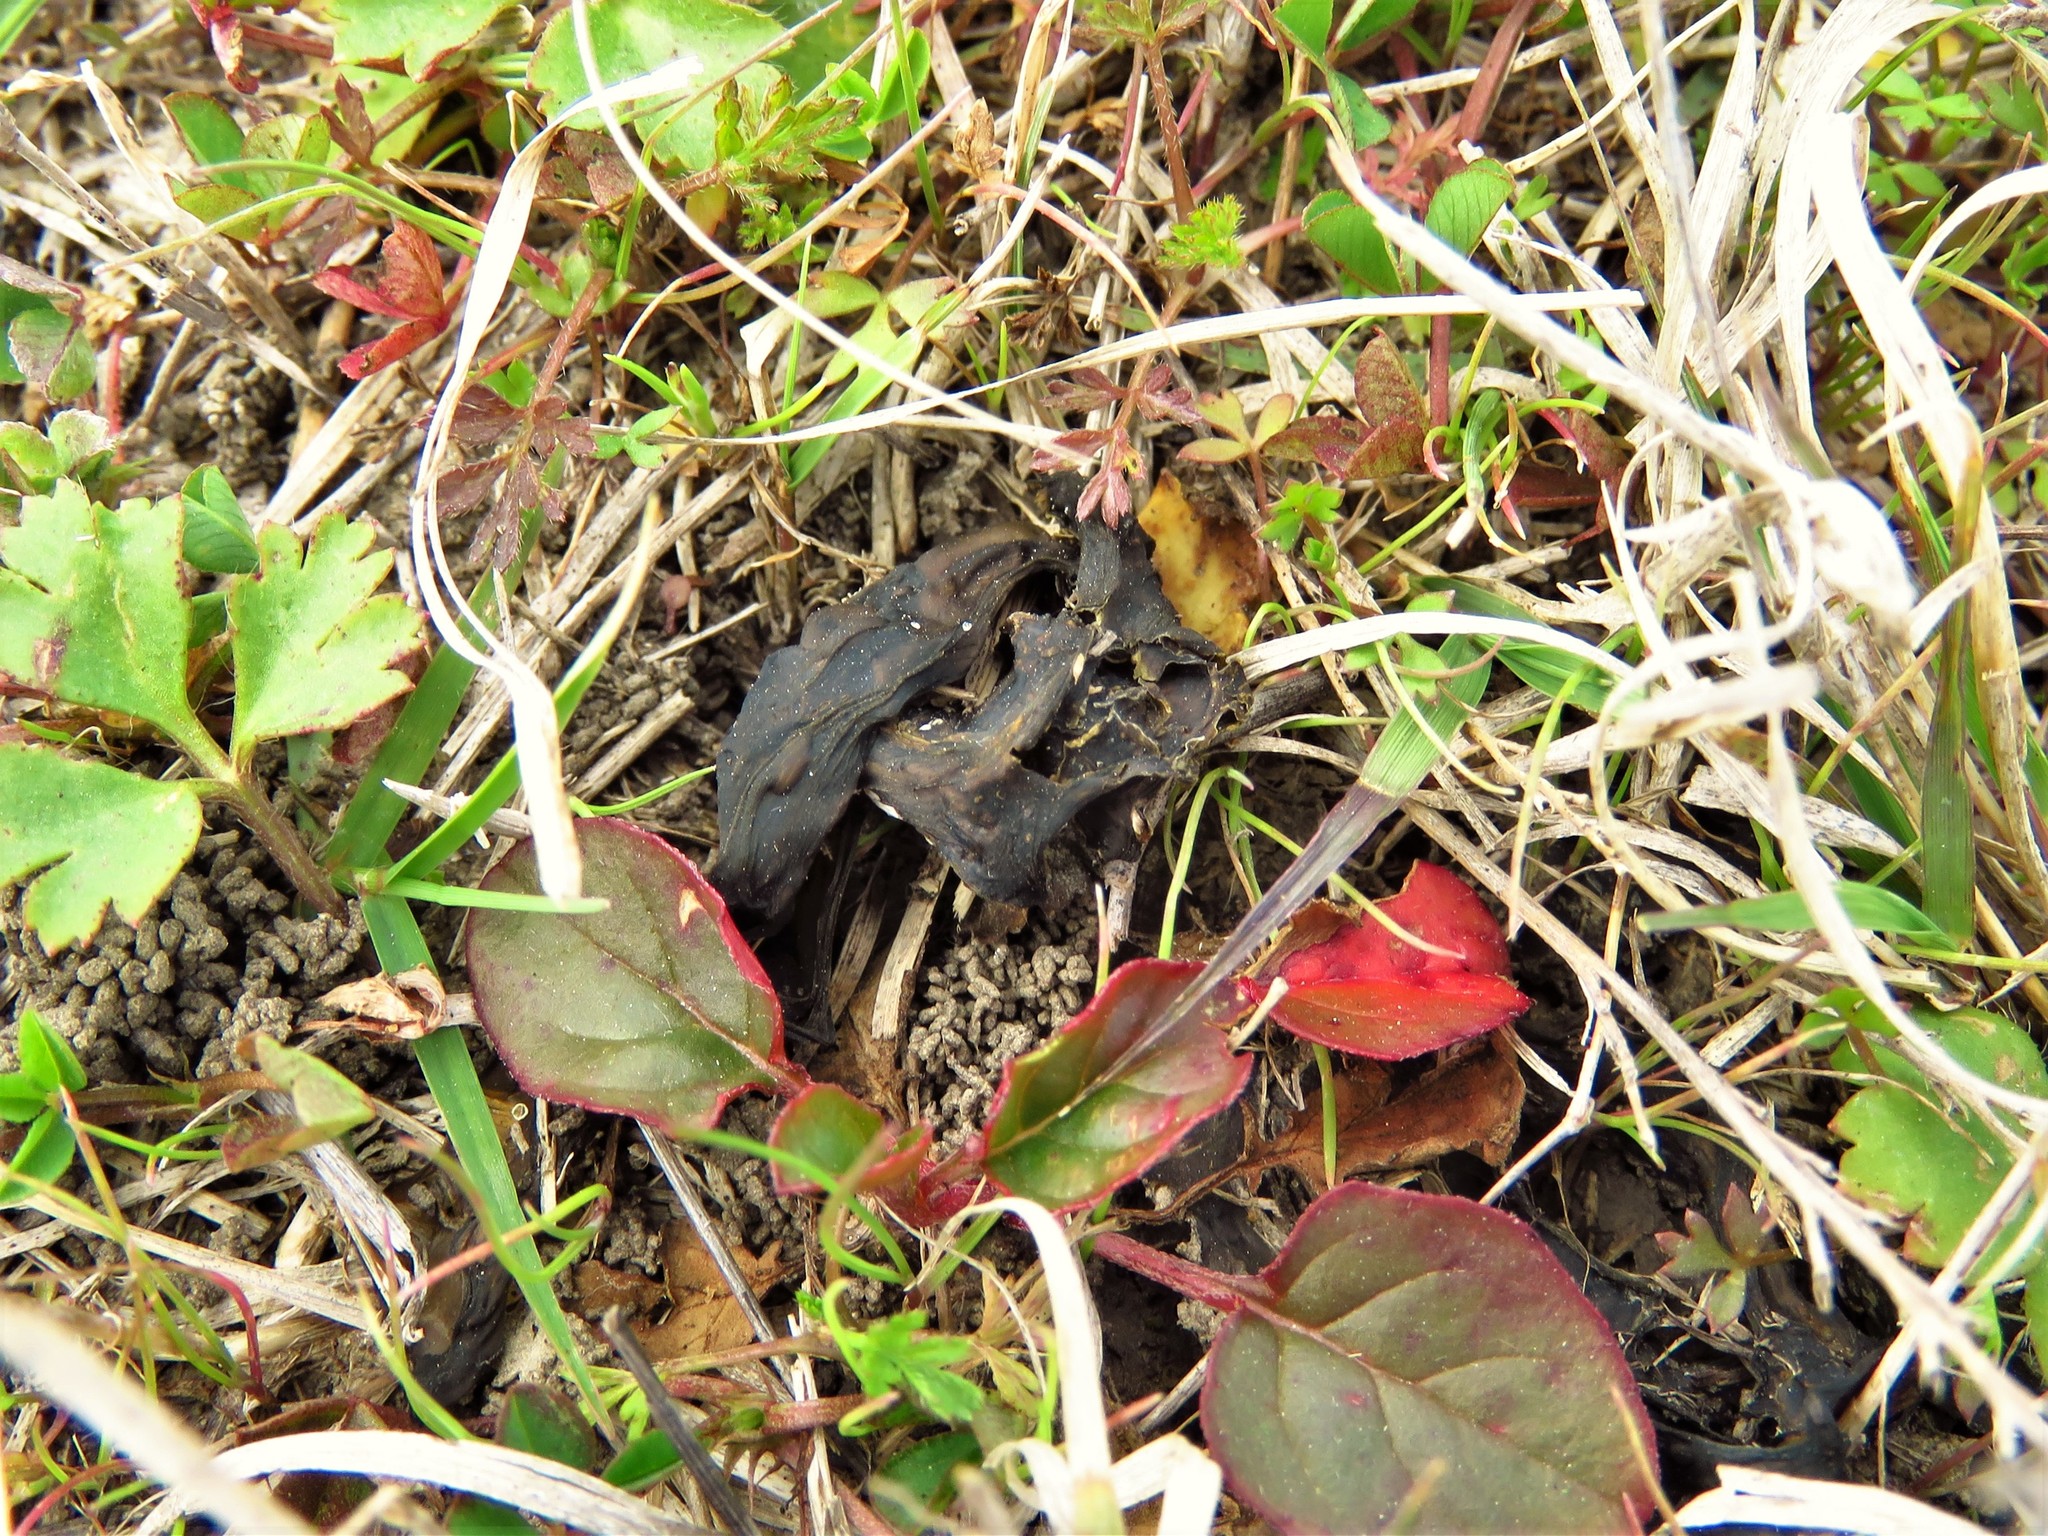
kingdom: Bacteria
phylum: Cyanobacteria
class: Cyanobacteriia
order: Cyanobacteriales
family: Nostocaceae
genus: Nostoc
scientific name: Nostoc commune
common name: Star jelly
